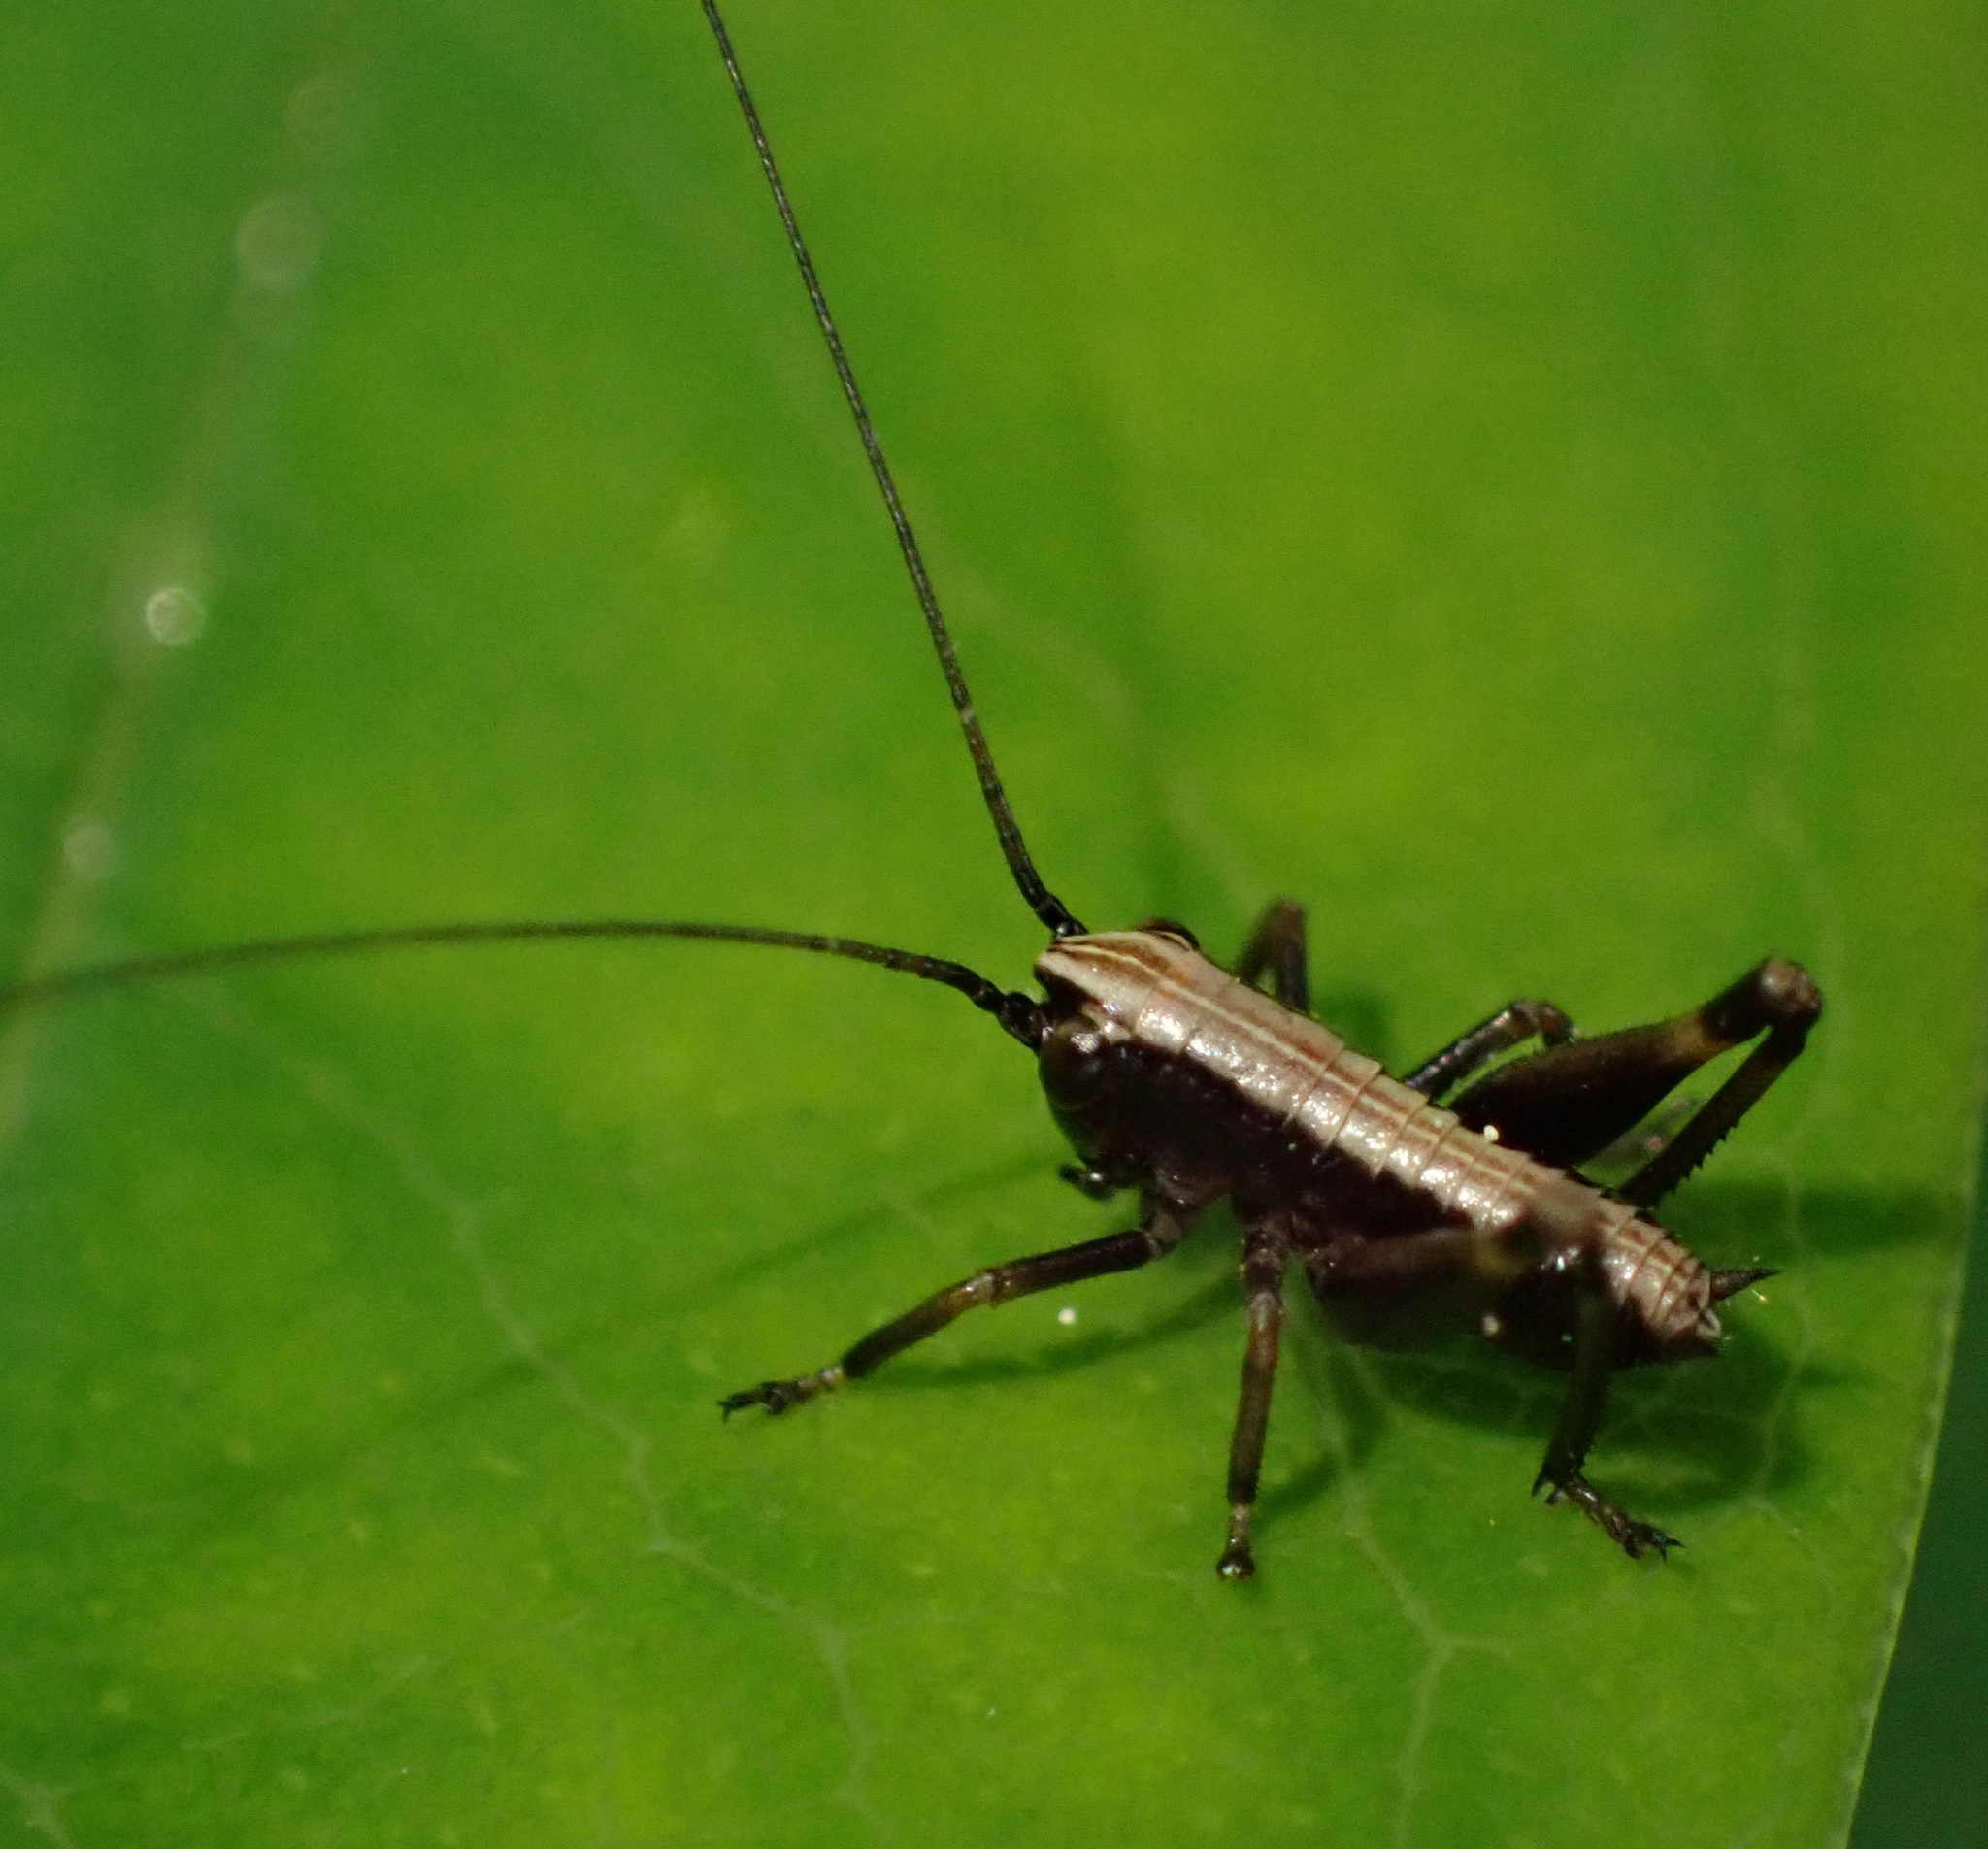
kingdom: Animalia
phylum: Arthropoda
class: Insecta
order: Orthoptera
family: Tettigoniidae
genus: Pholidoptera
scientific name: Pholidoptera griseoaptera
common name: Dark bush-cricket
